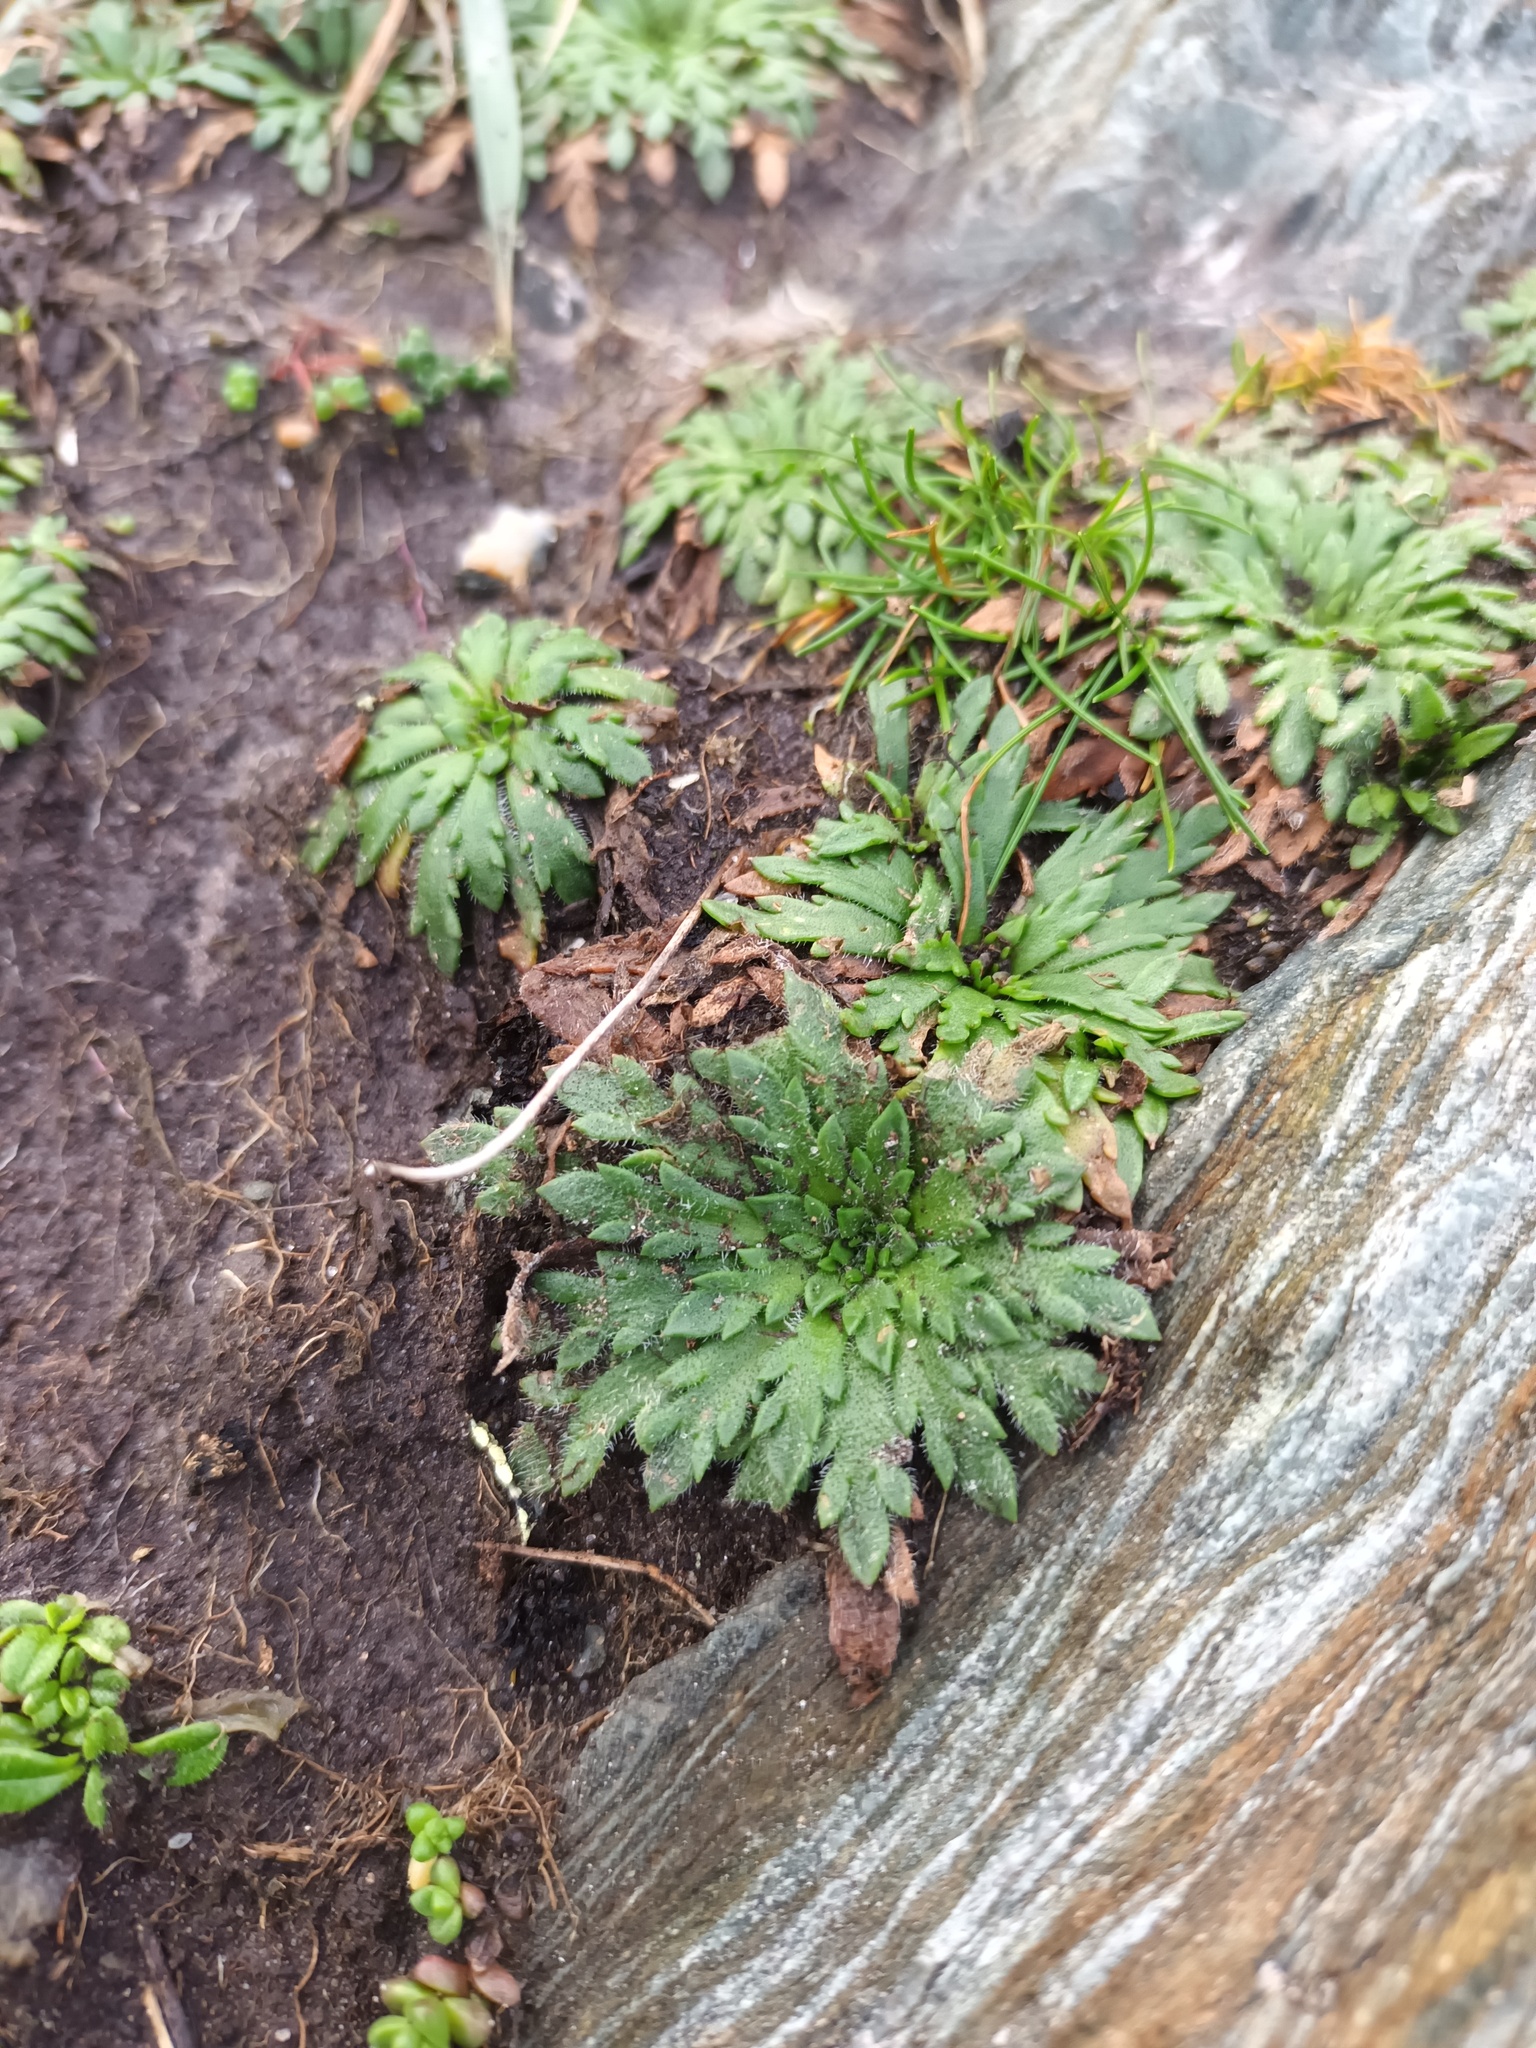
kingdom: Plantae
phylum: Tracheophyta
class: Magnoliopsida
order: Lamiales
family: Plantaginaceae
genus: Plantago
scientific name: Plantago coronopus
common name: Buck's-horn plantain
